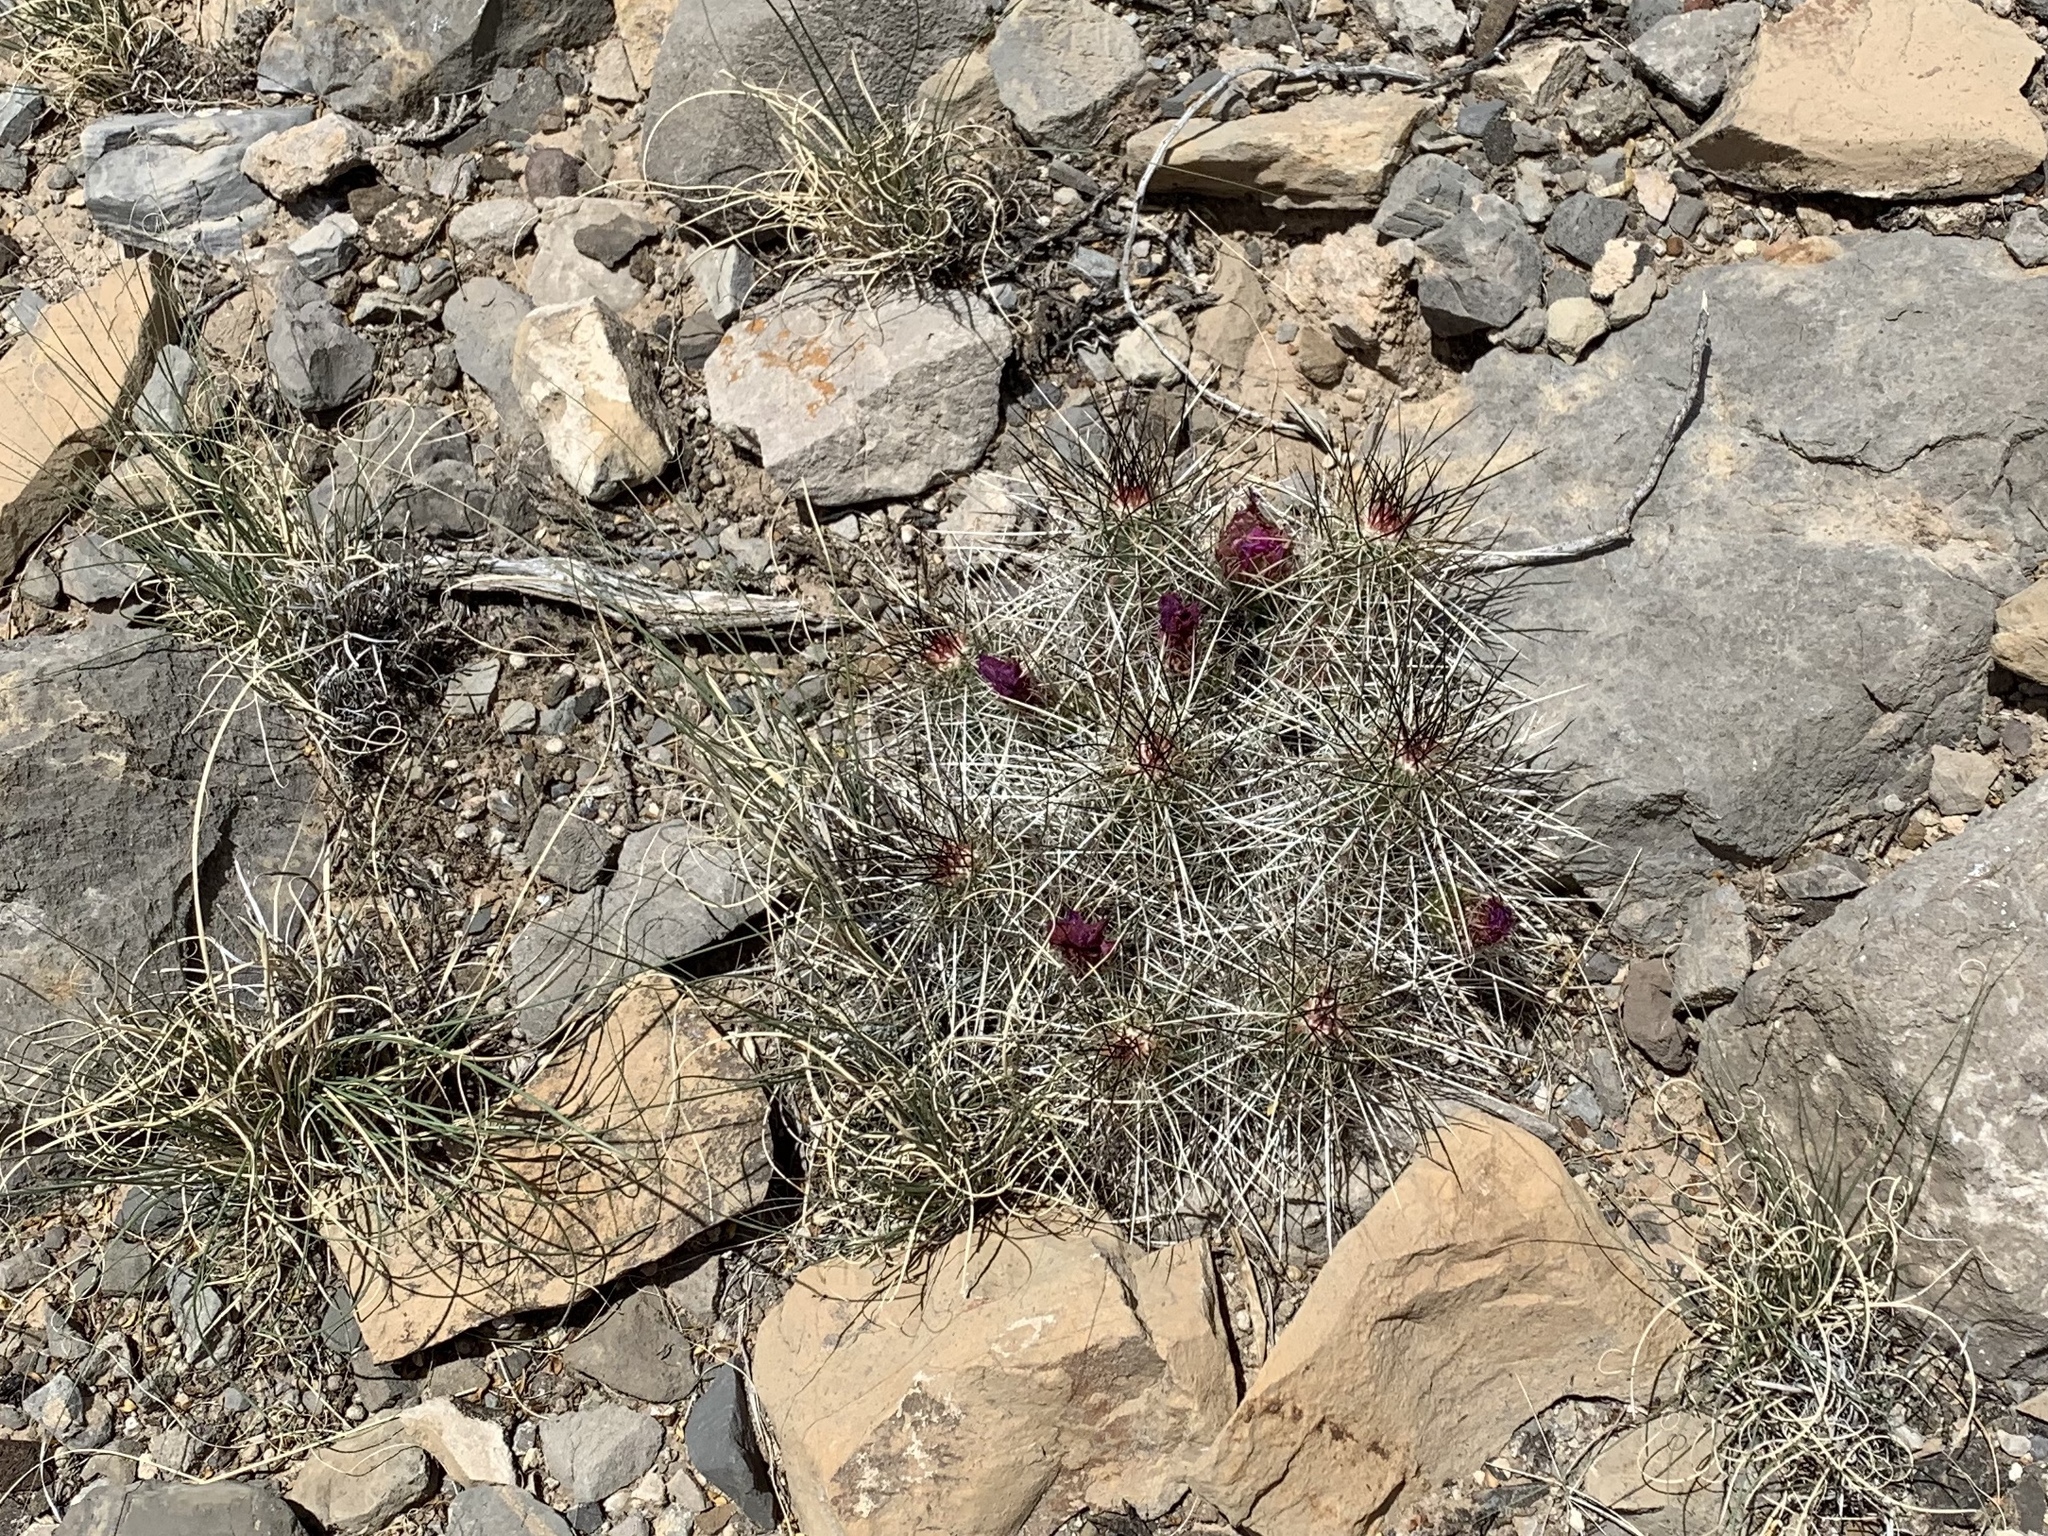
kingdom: Plantae
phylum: Tracheophyta
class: Magnoliopsida
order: Caryophyllales
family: Cactaceae
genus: Echinocereus
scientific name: Echinocereus stramineus
